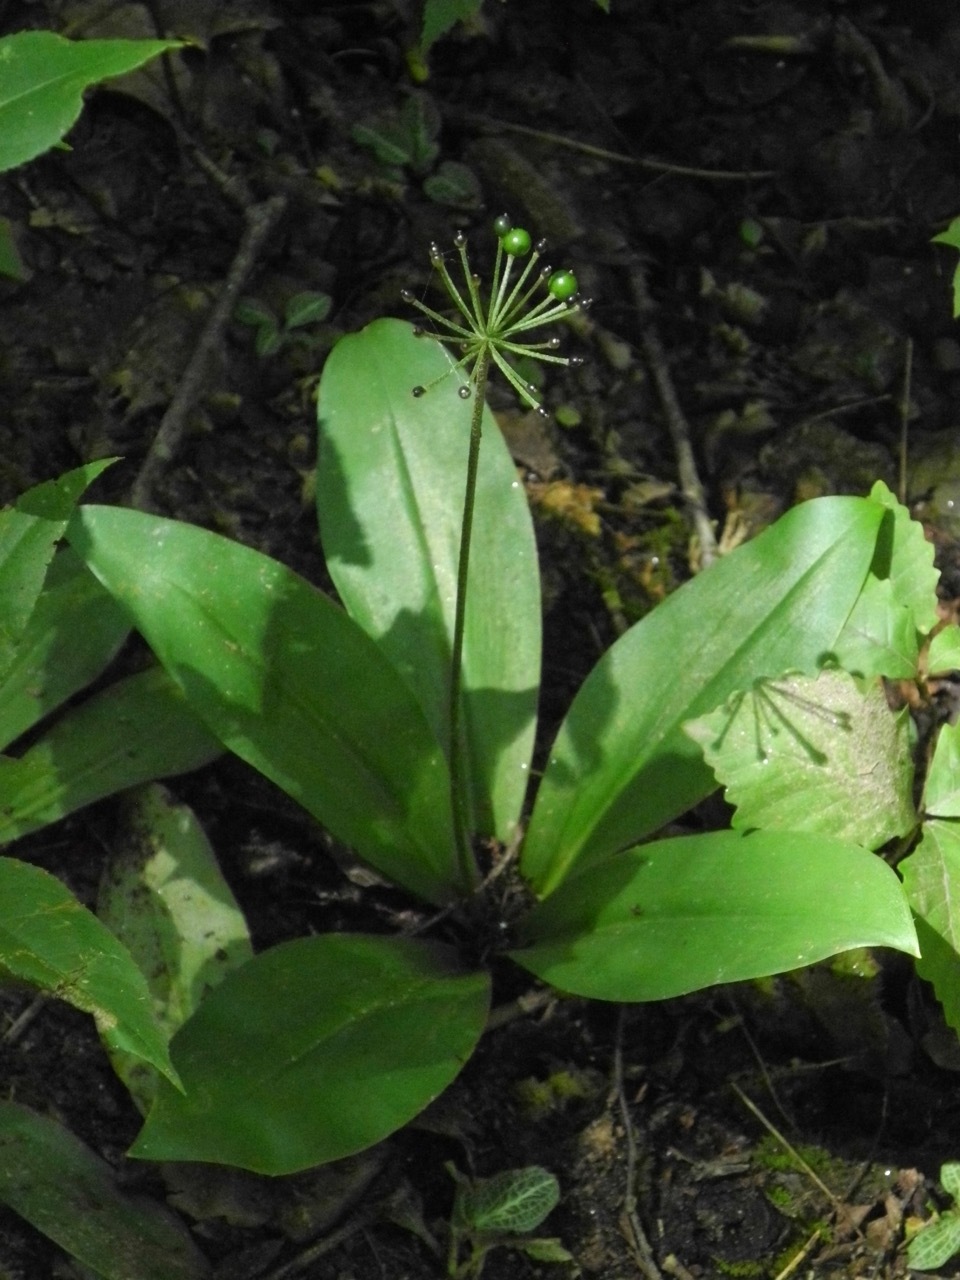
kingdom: Plantae
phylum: Tracheophyta
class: Liliopsida
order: Liliales
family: Liliaceae
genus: Clintonia
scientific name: Clintonia umbellulata
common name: Speckle wood-lily
